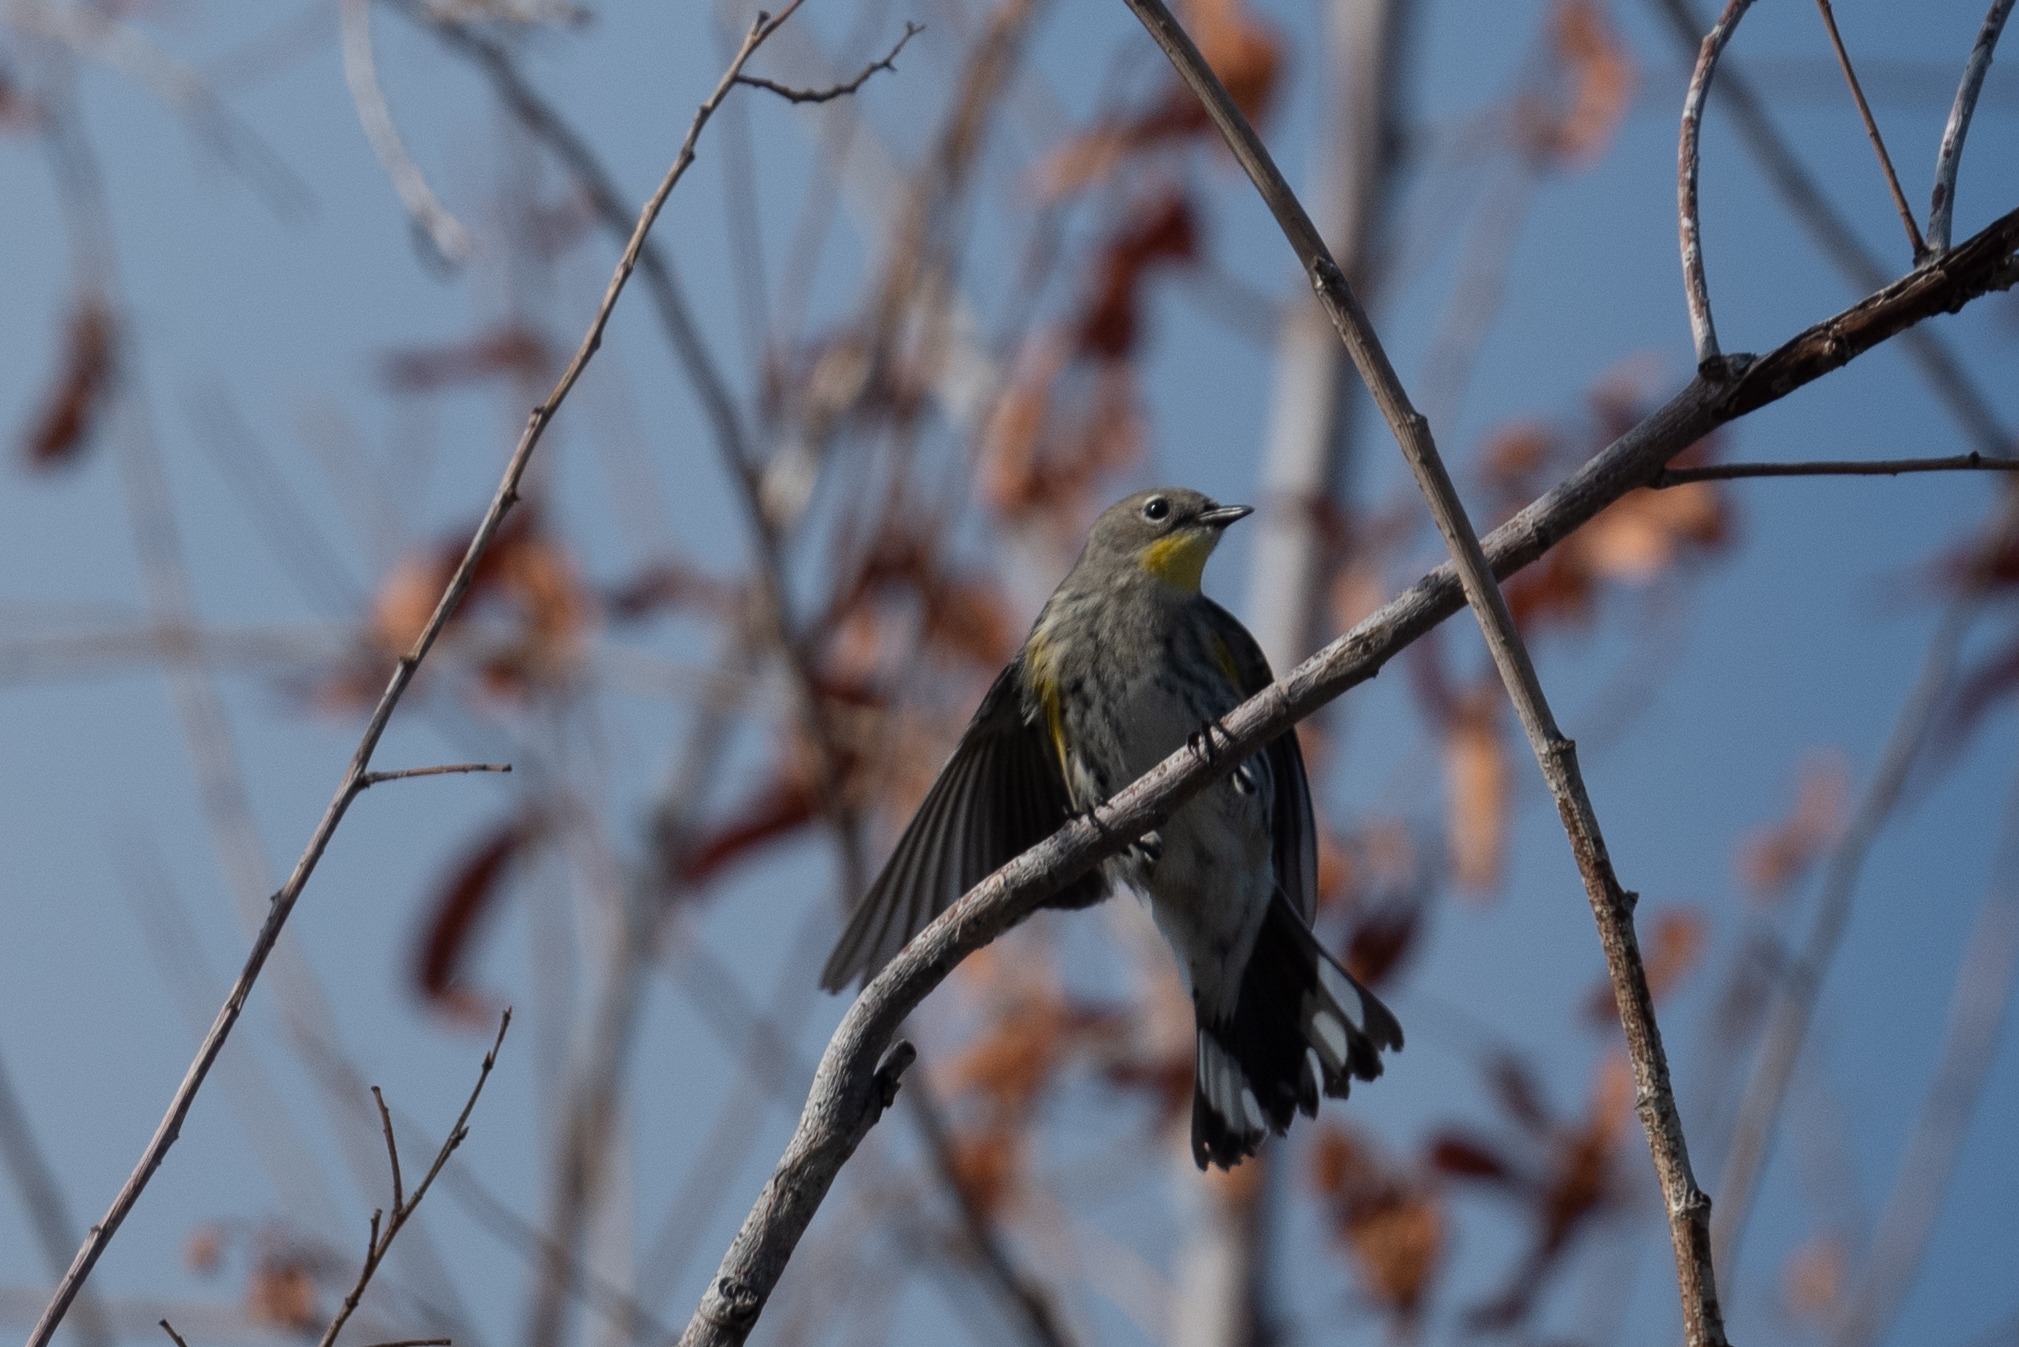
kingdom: Animalia
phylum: Chordata
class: Aves
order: Passeriformes
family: Parulidae
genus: Setophaga
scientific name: Setophaga coronata
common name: Myrtle warbler
